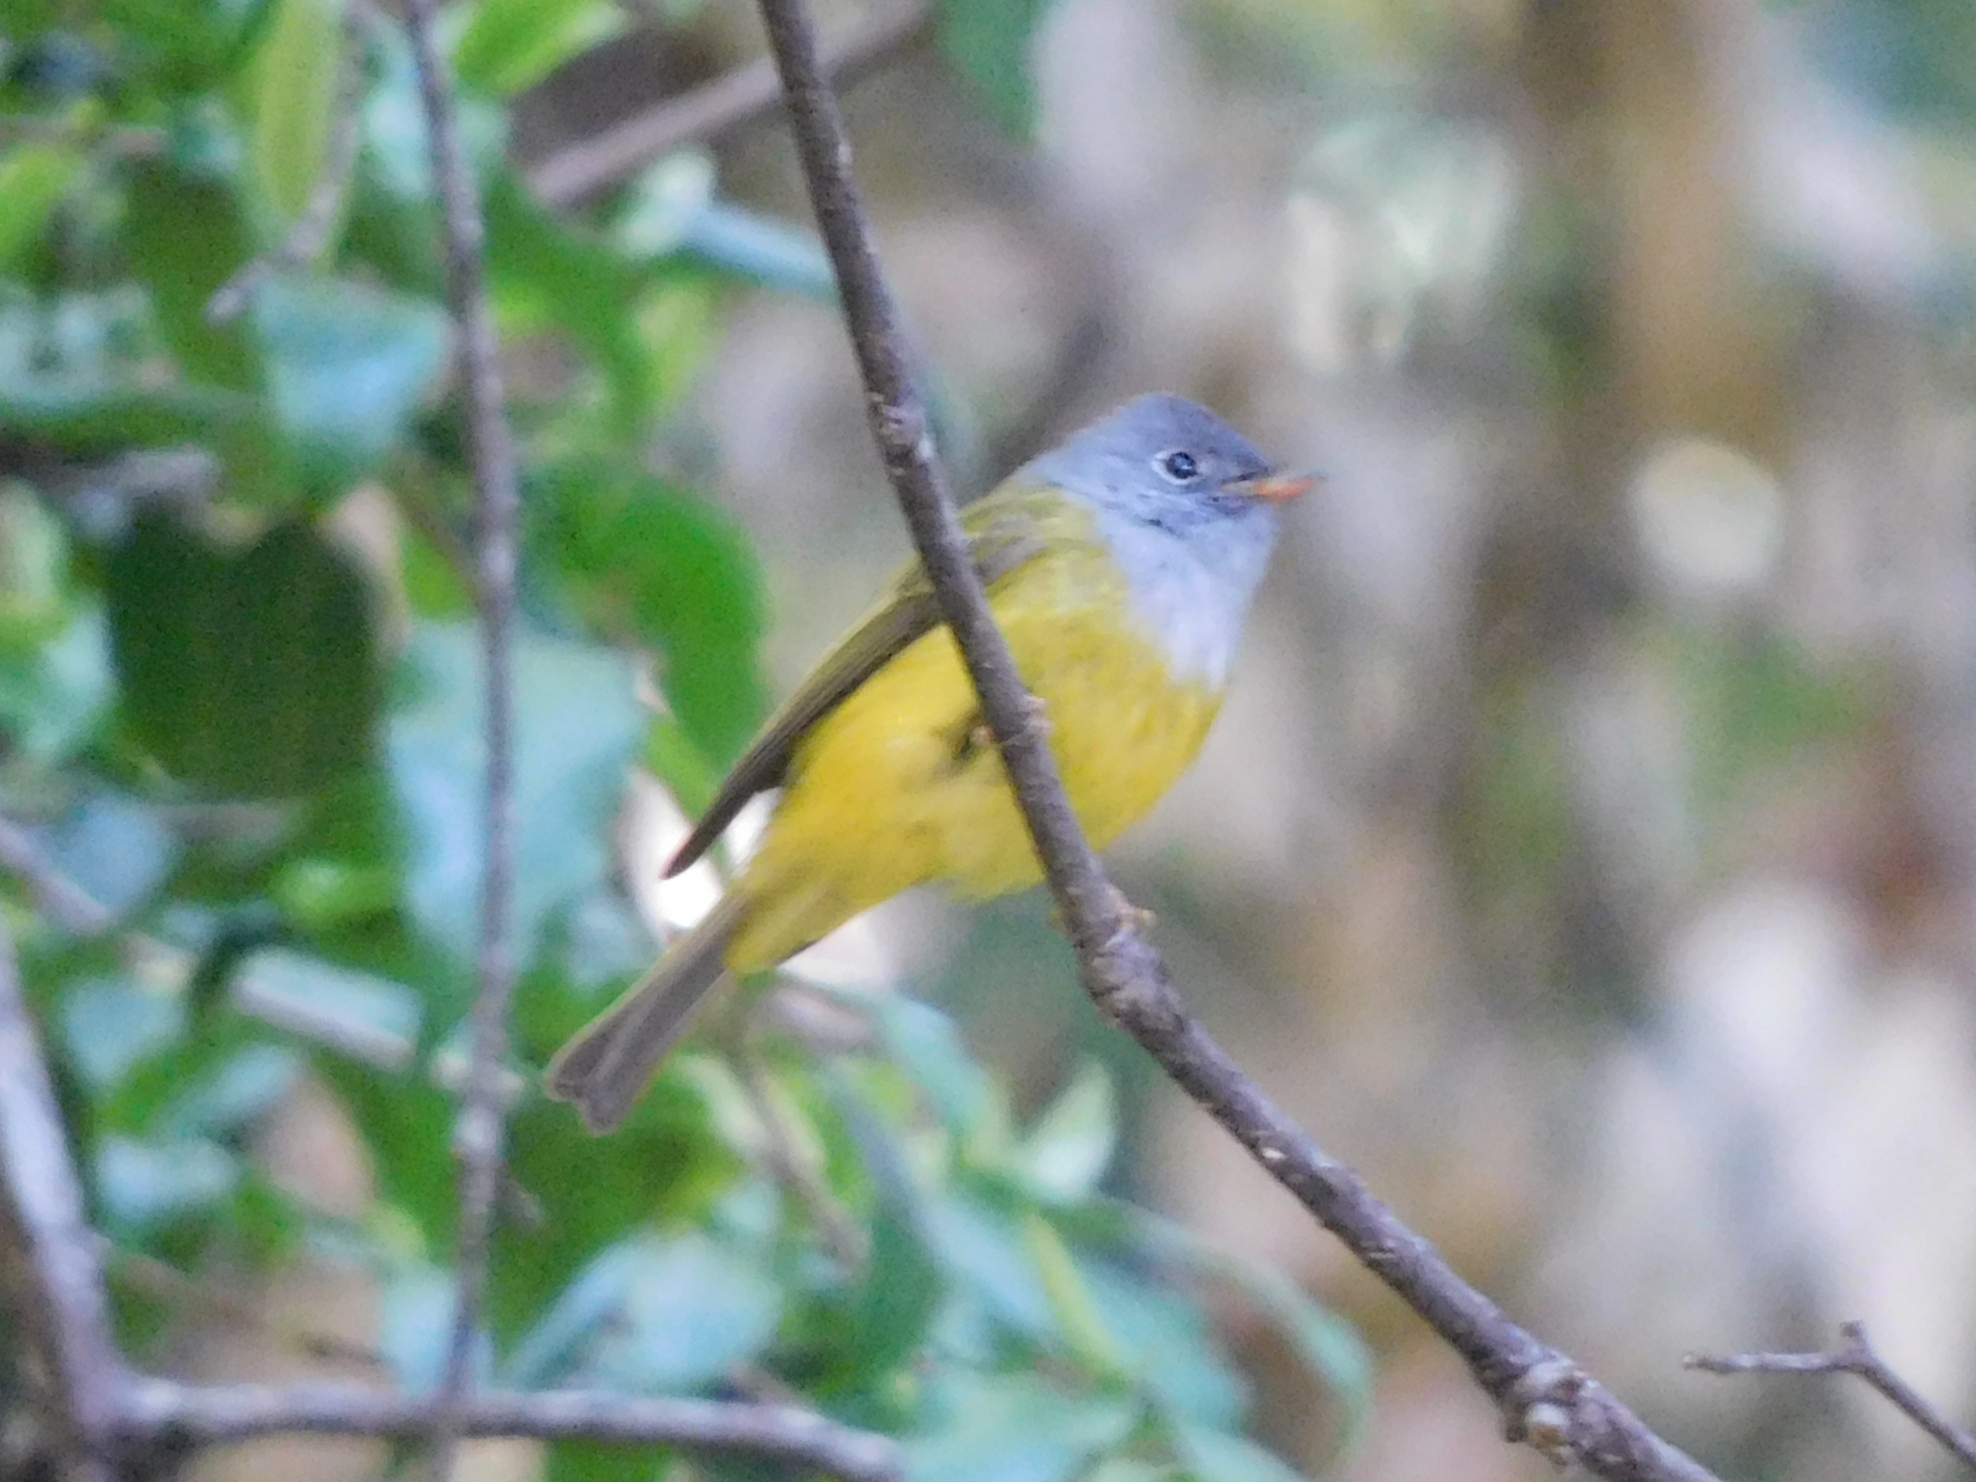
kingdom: Animalia
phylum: Chordata
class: Aves
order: Passeriformes
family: Stenostiridae
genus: Culicicapa
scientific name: Culicicapa ceylonensis
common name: Grey-headed canary-flycatcher
